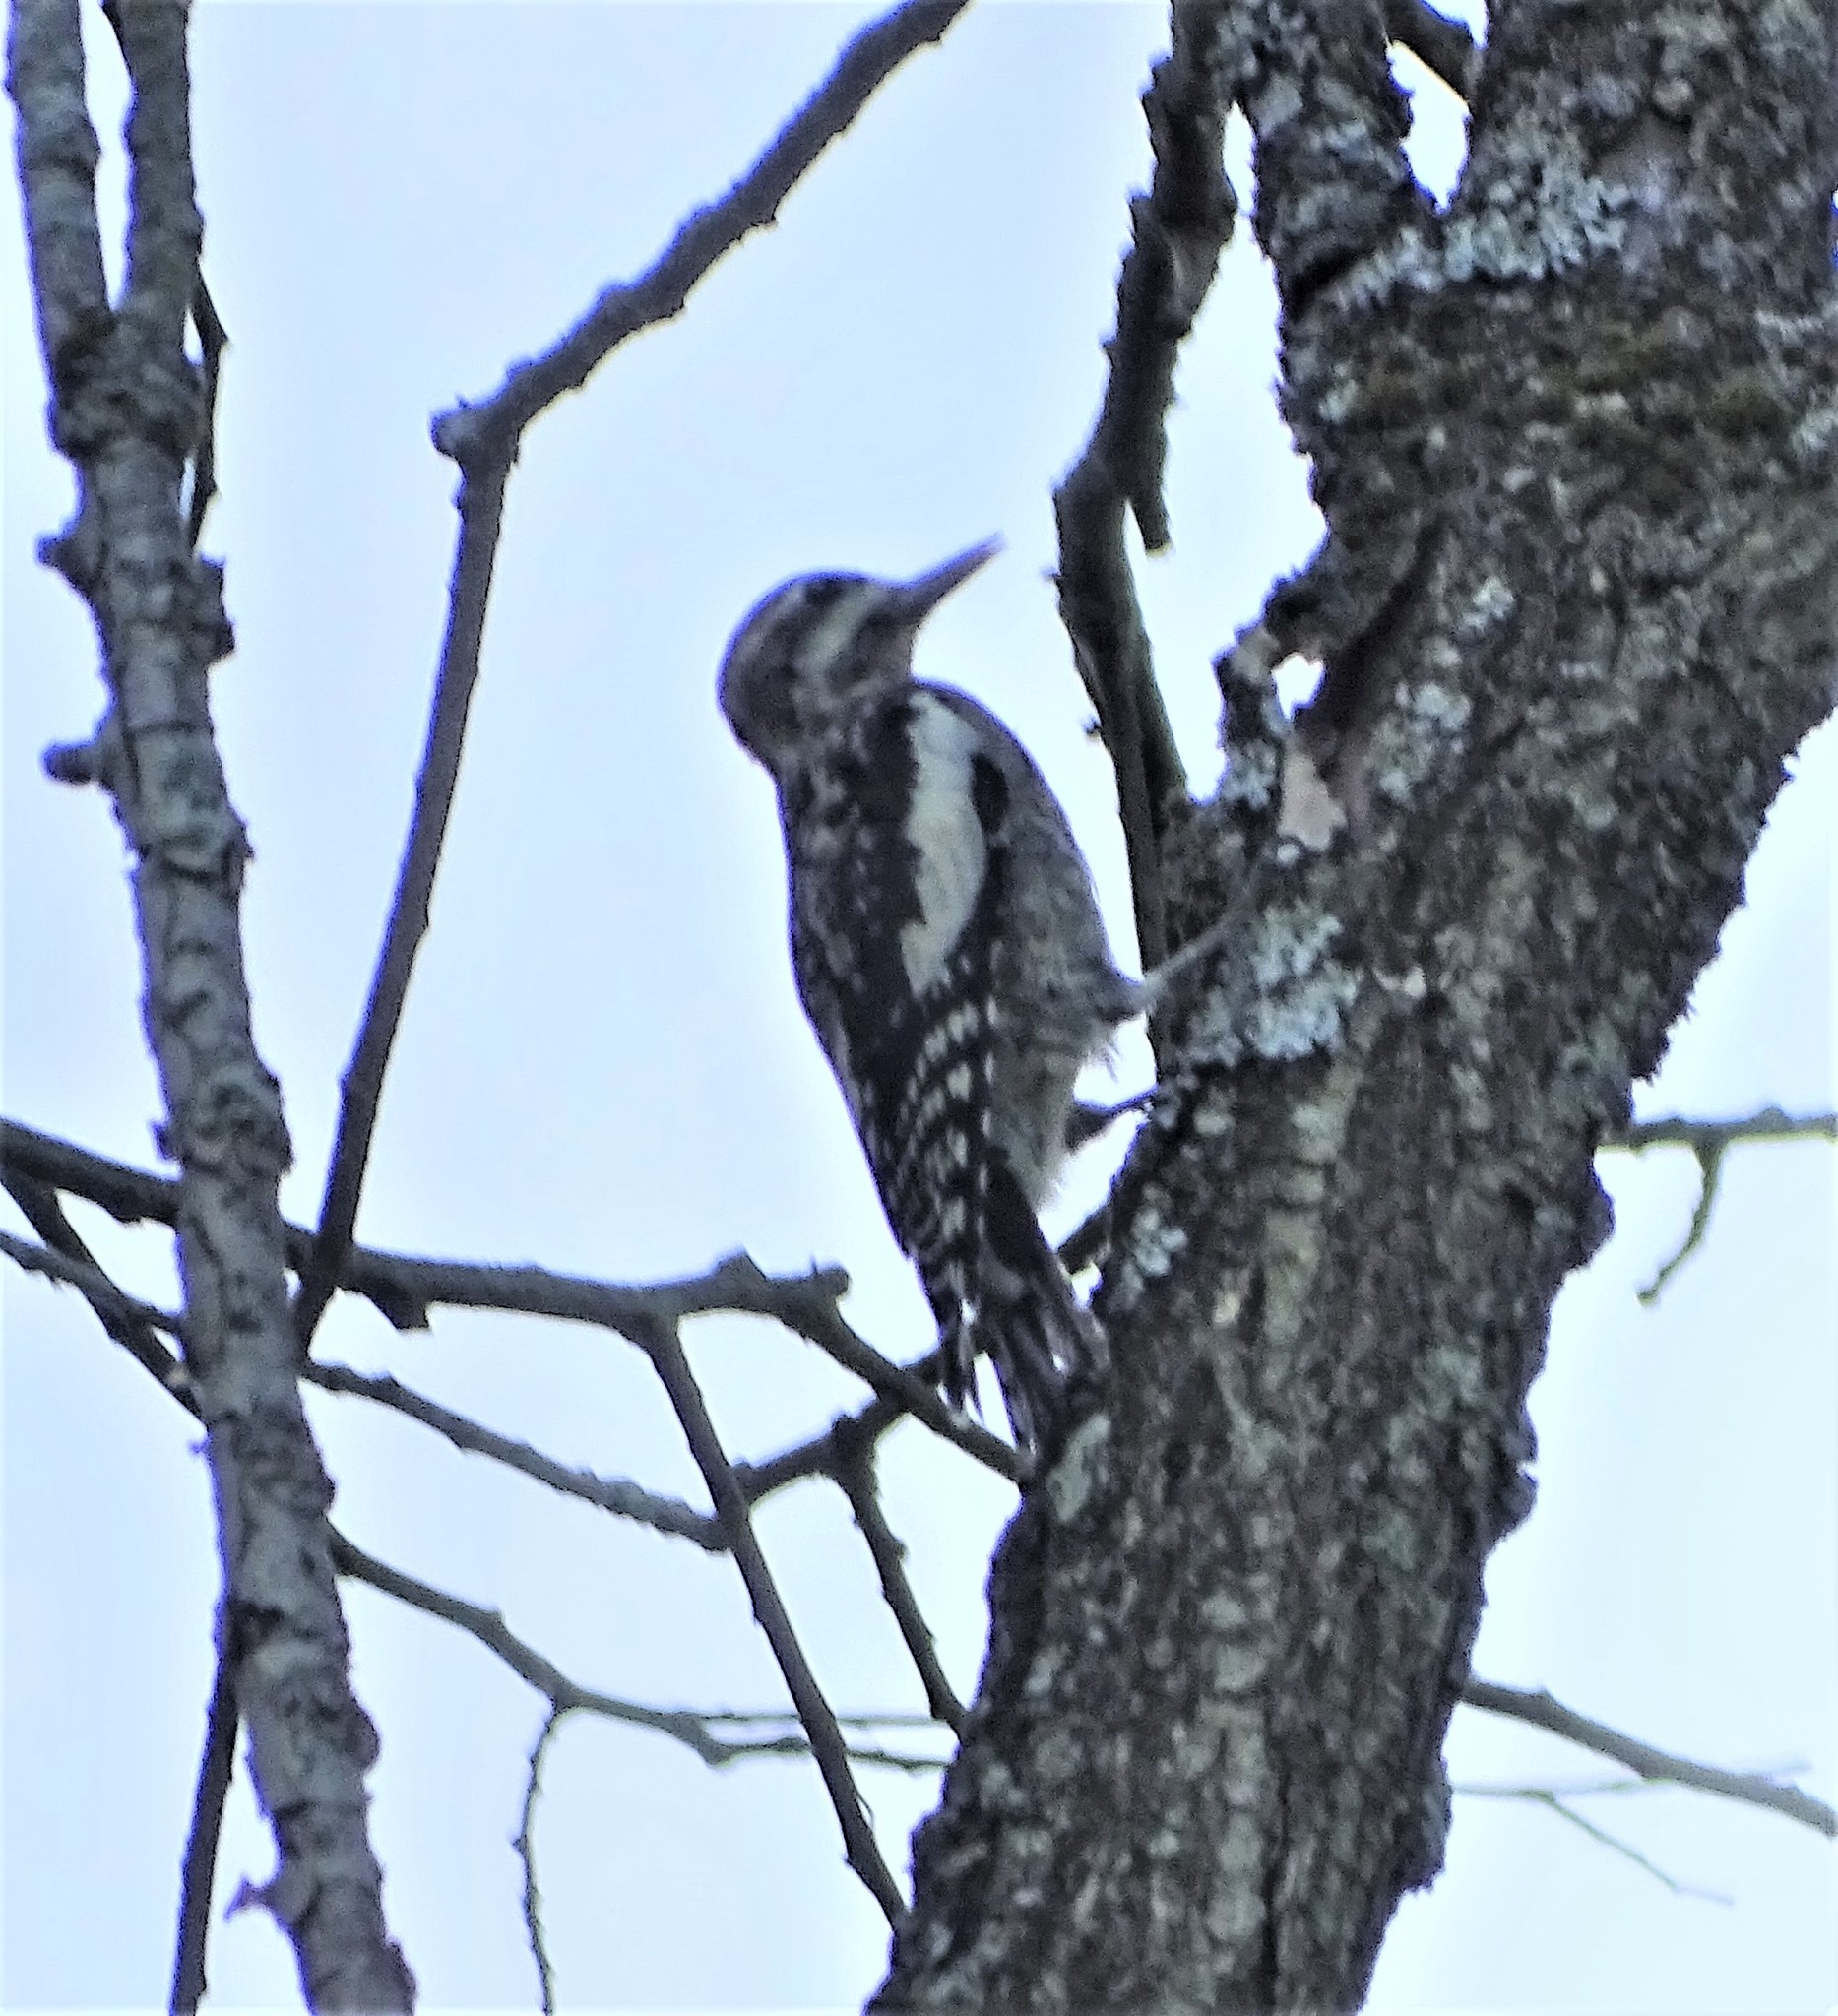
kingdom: Animalia
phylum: Chordata
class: Aves
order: Piciformes
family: Picidae
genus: Sphyrapicus
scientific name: Sphyrapicus varius
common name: Yellow-bellied sapsucker
